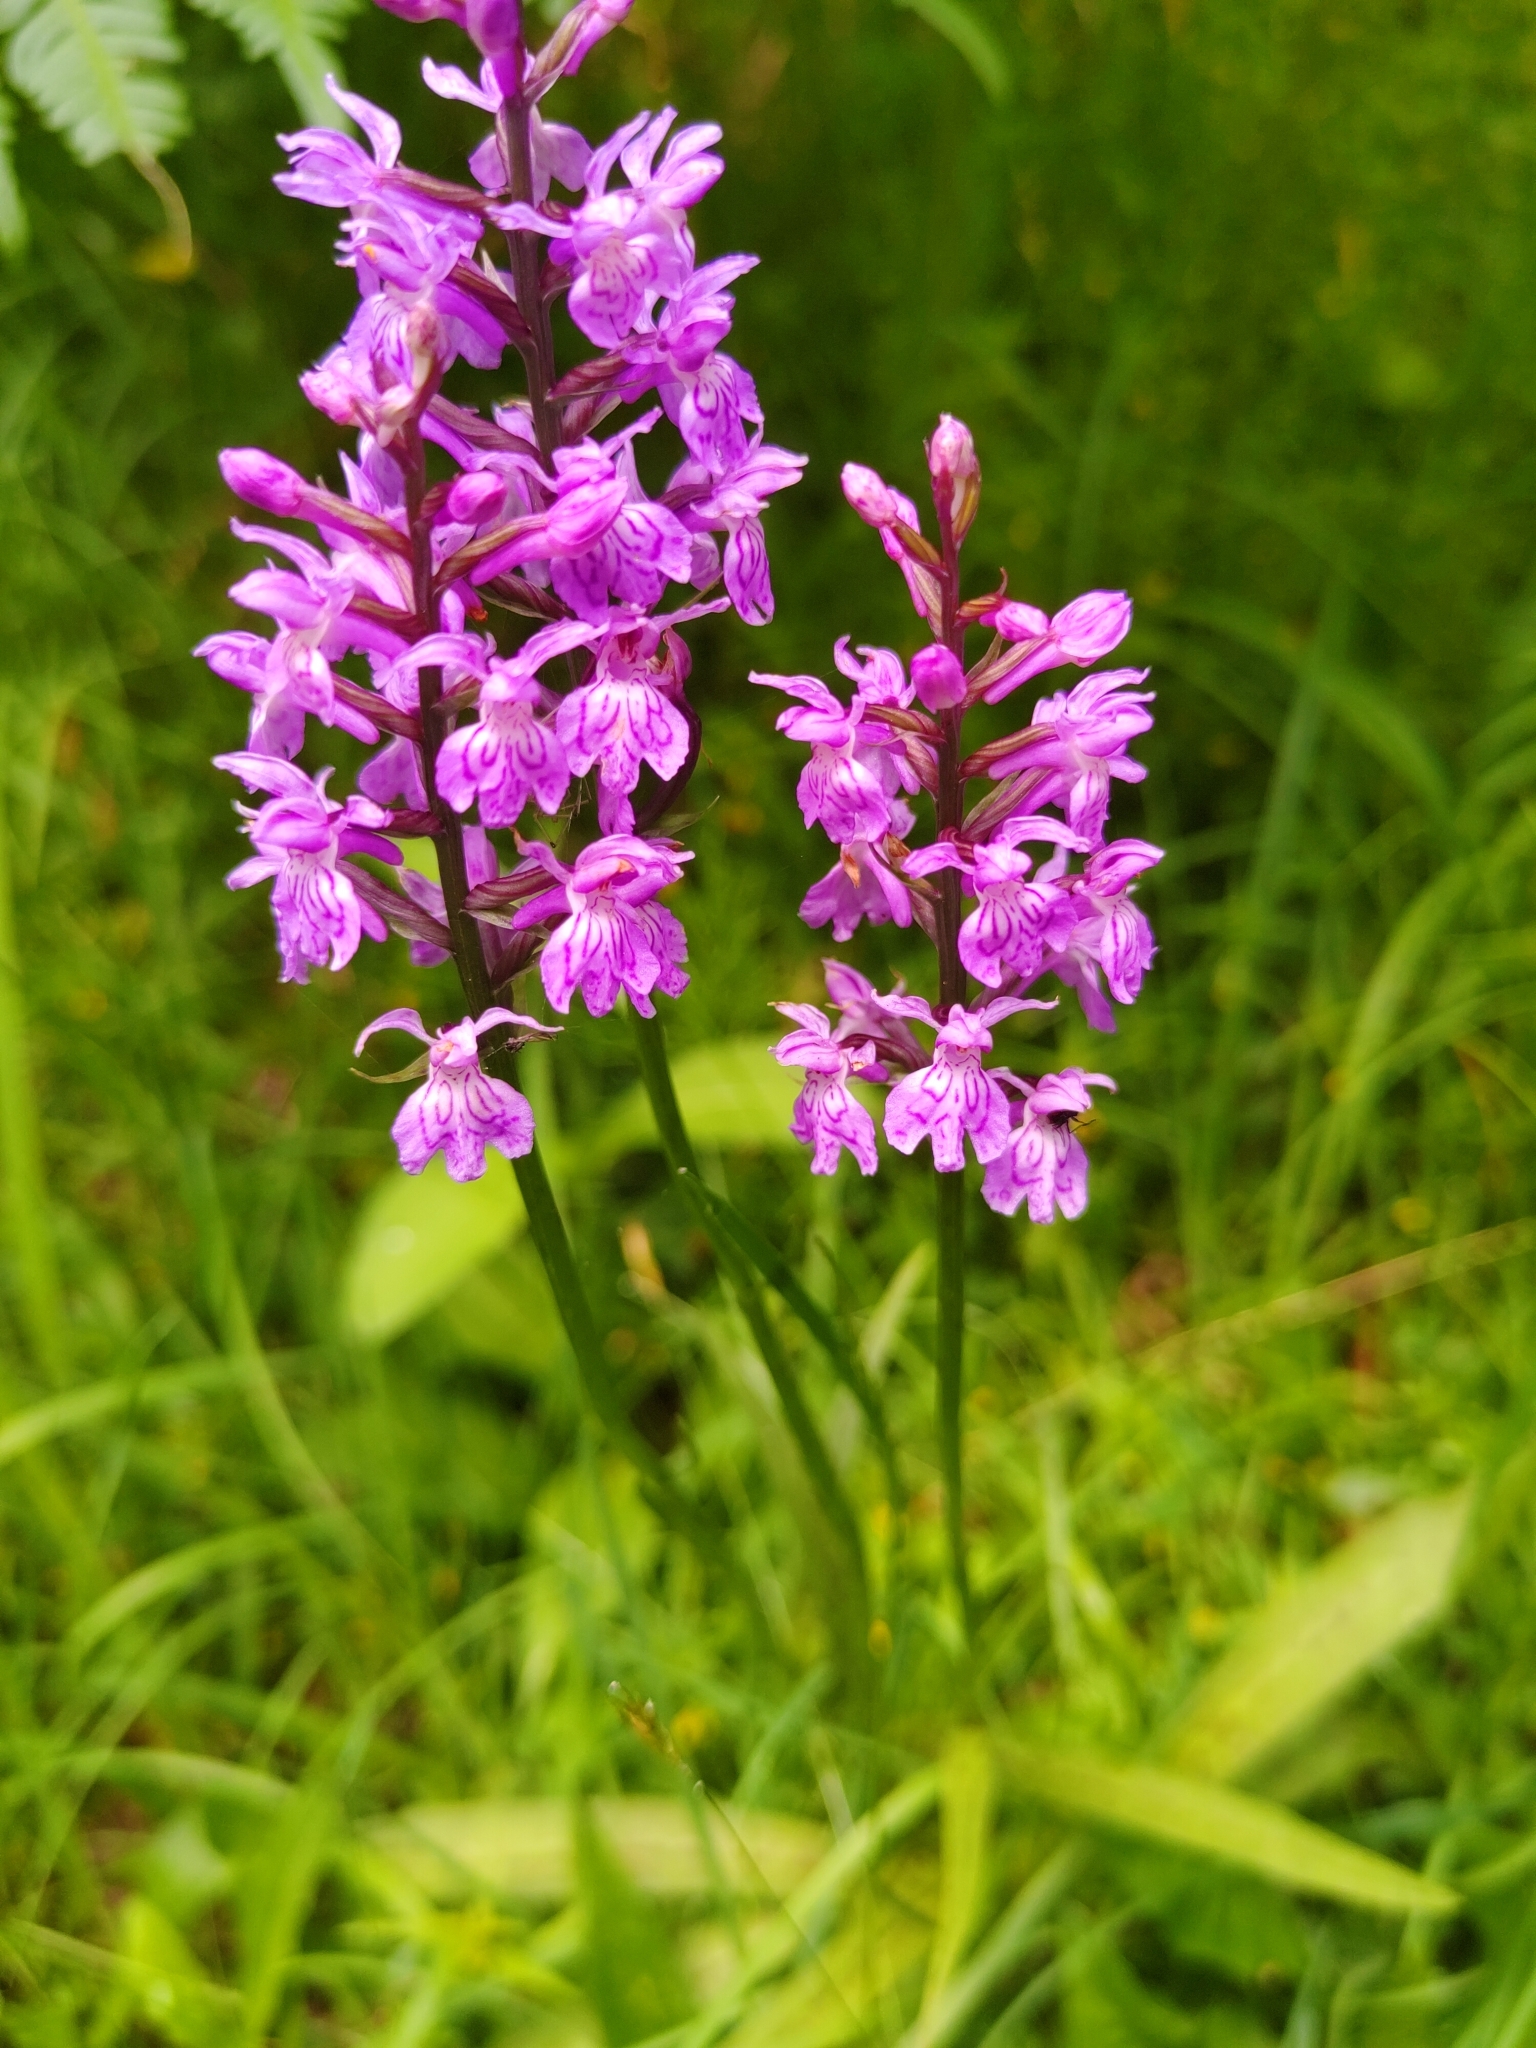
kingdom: Plantae
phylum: Tracheophyta
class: Liliopsida
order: Asparagales
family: Orchidaceae
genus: Dactylorhiza
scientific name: Dactylorhiza maculata
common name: Heath spotted-orchid
